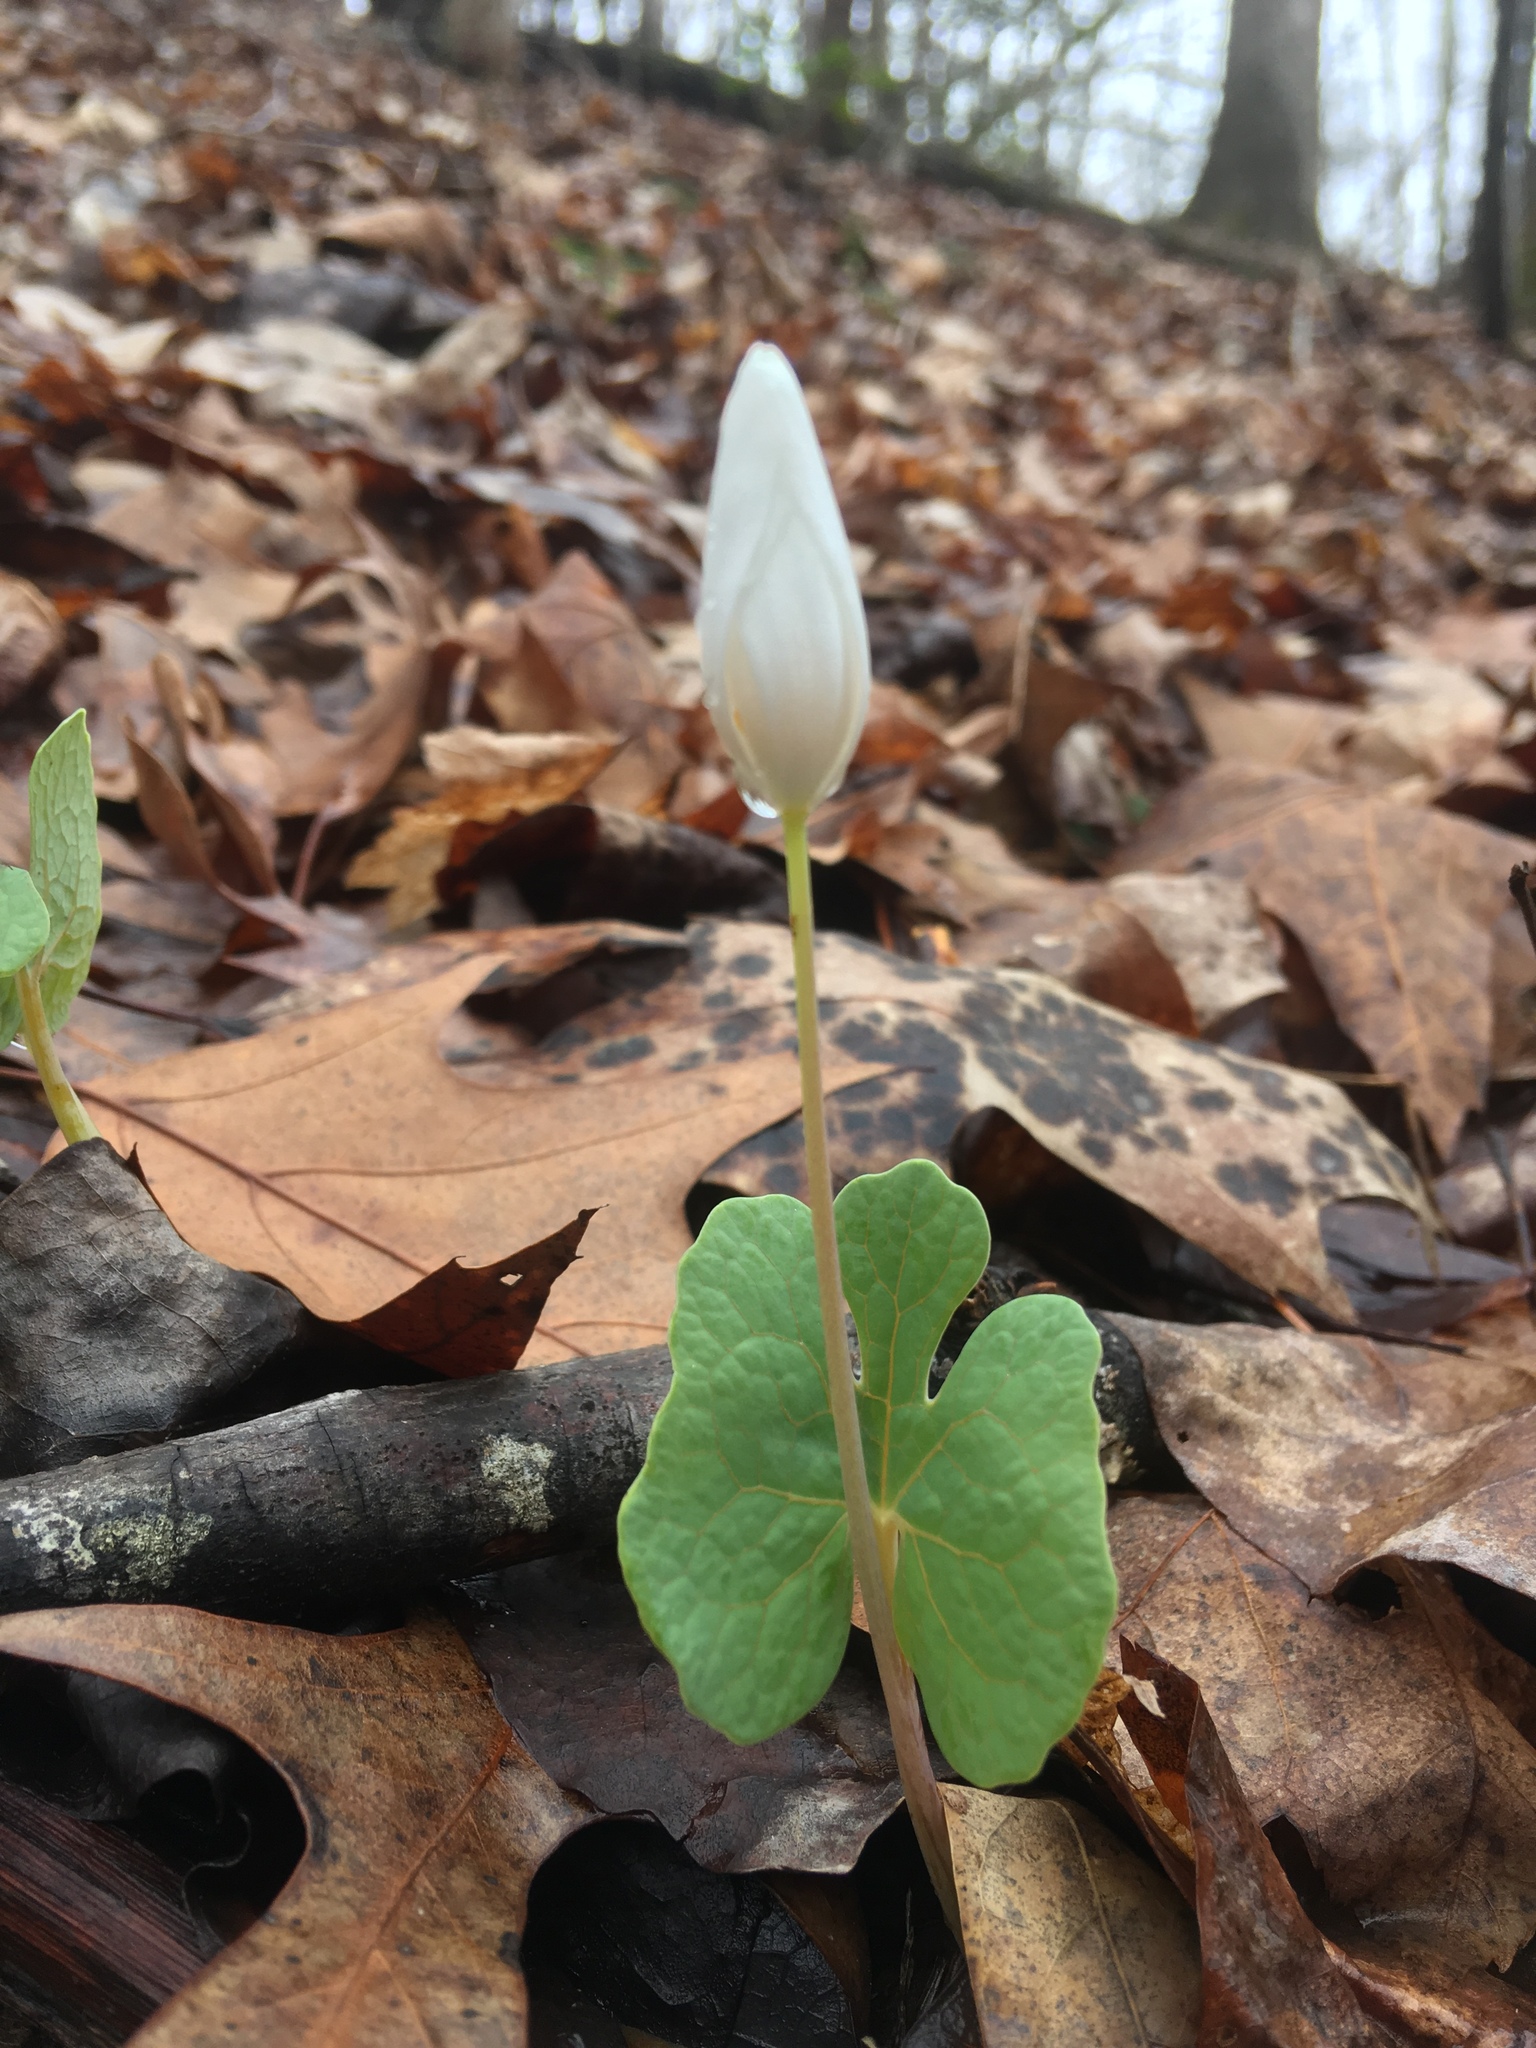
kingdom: Plantae
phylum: Tracheophyta
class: Magnoliopsida
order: Ranunculales
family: Papaveraceae
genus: Sanguinaria
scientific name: Sanguinaria canadensis
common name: Bloodroot
